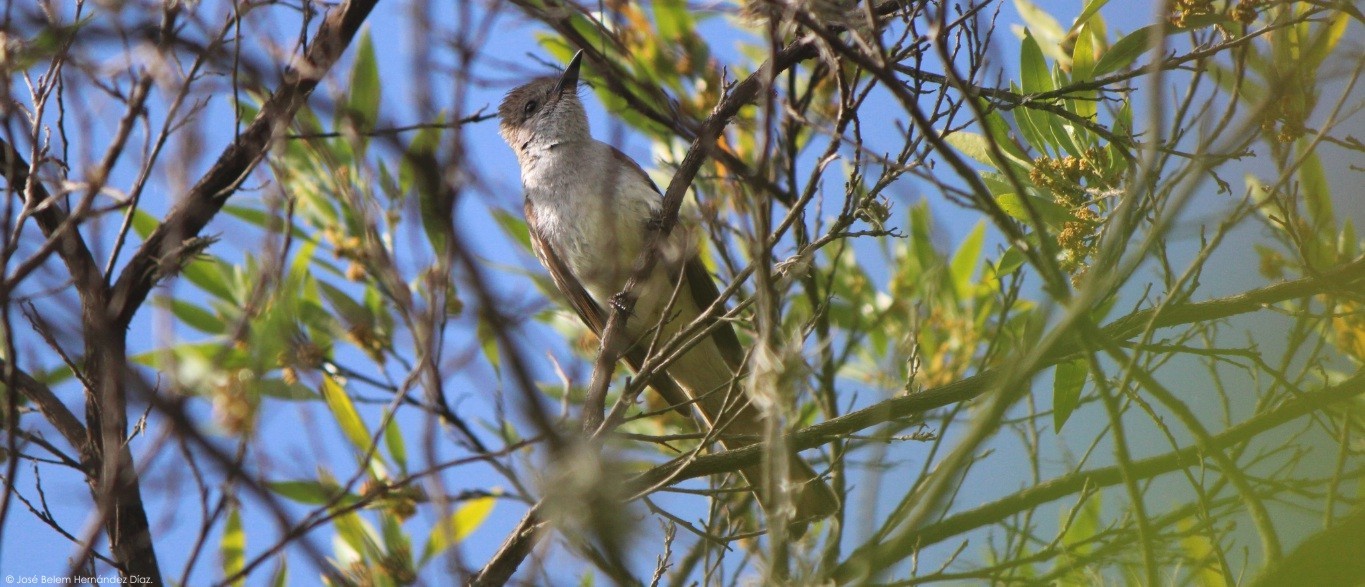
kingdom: Animalia
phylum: Chordata
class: Aves
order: Passeriformes
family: Tyrannidae
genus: Myiarchus
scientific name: Myiarchus cinerascens
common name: Ash-throated flycatcher
